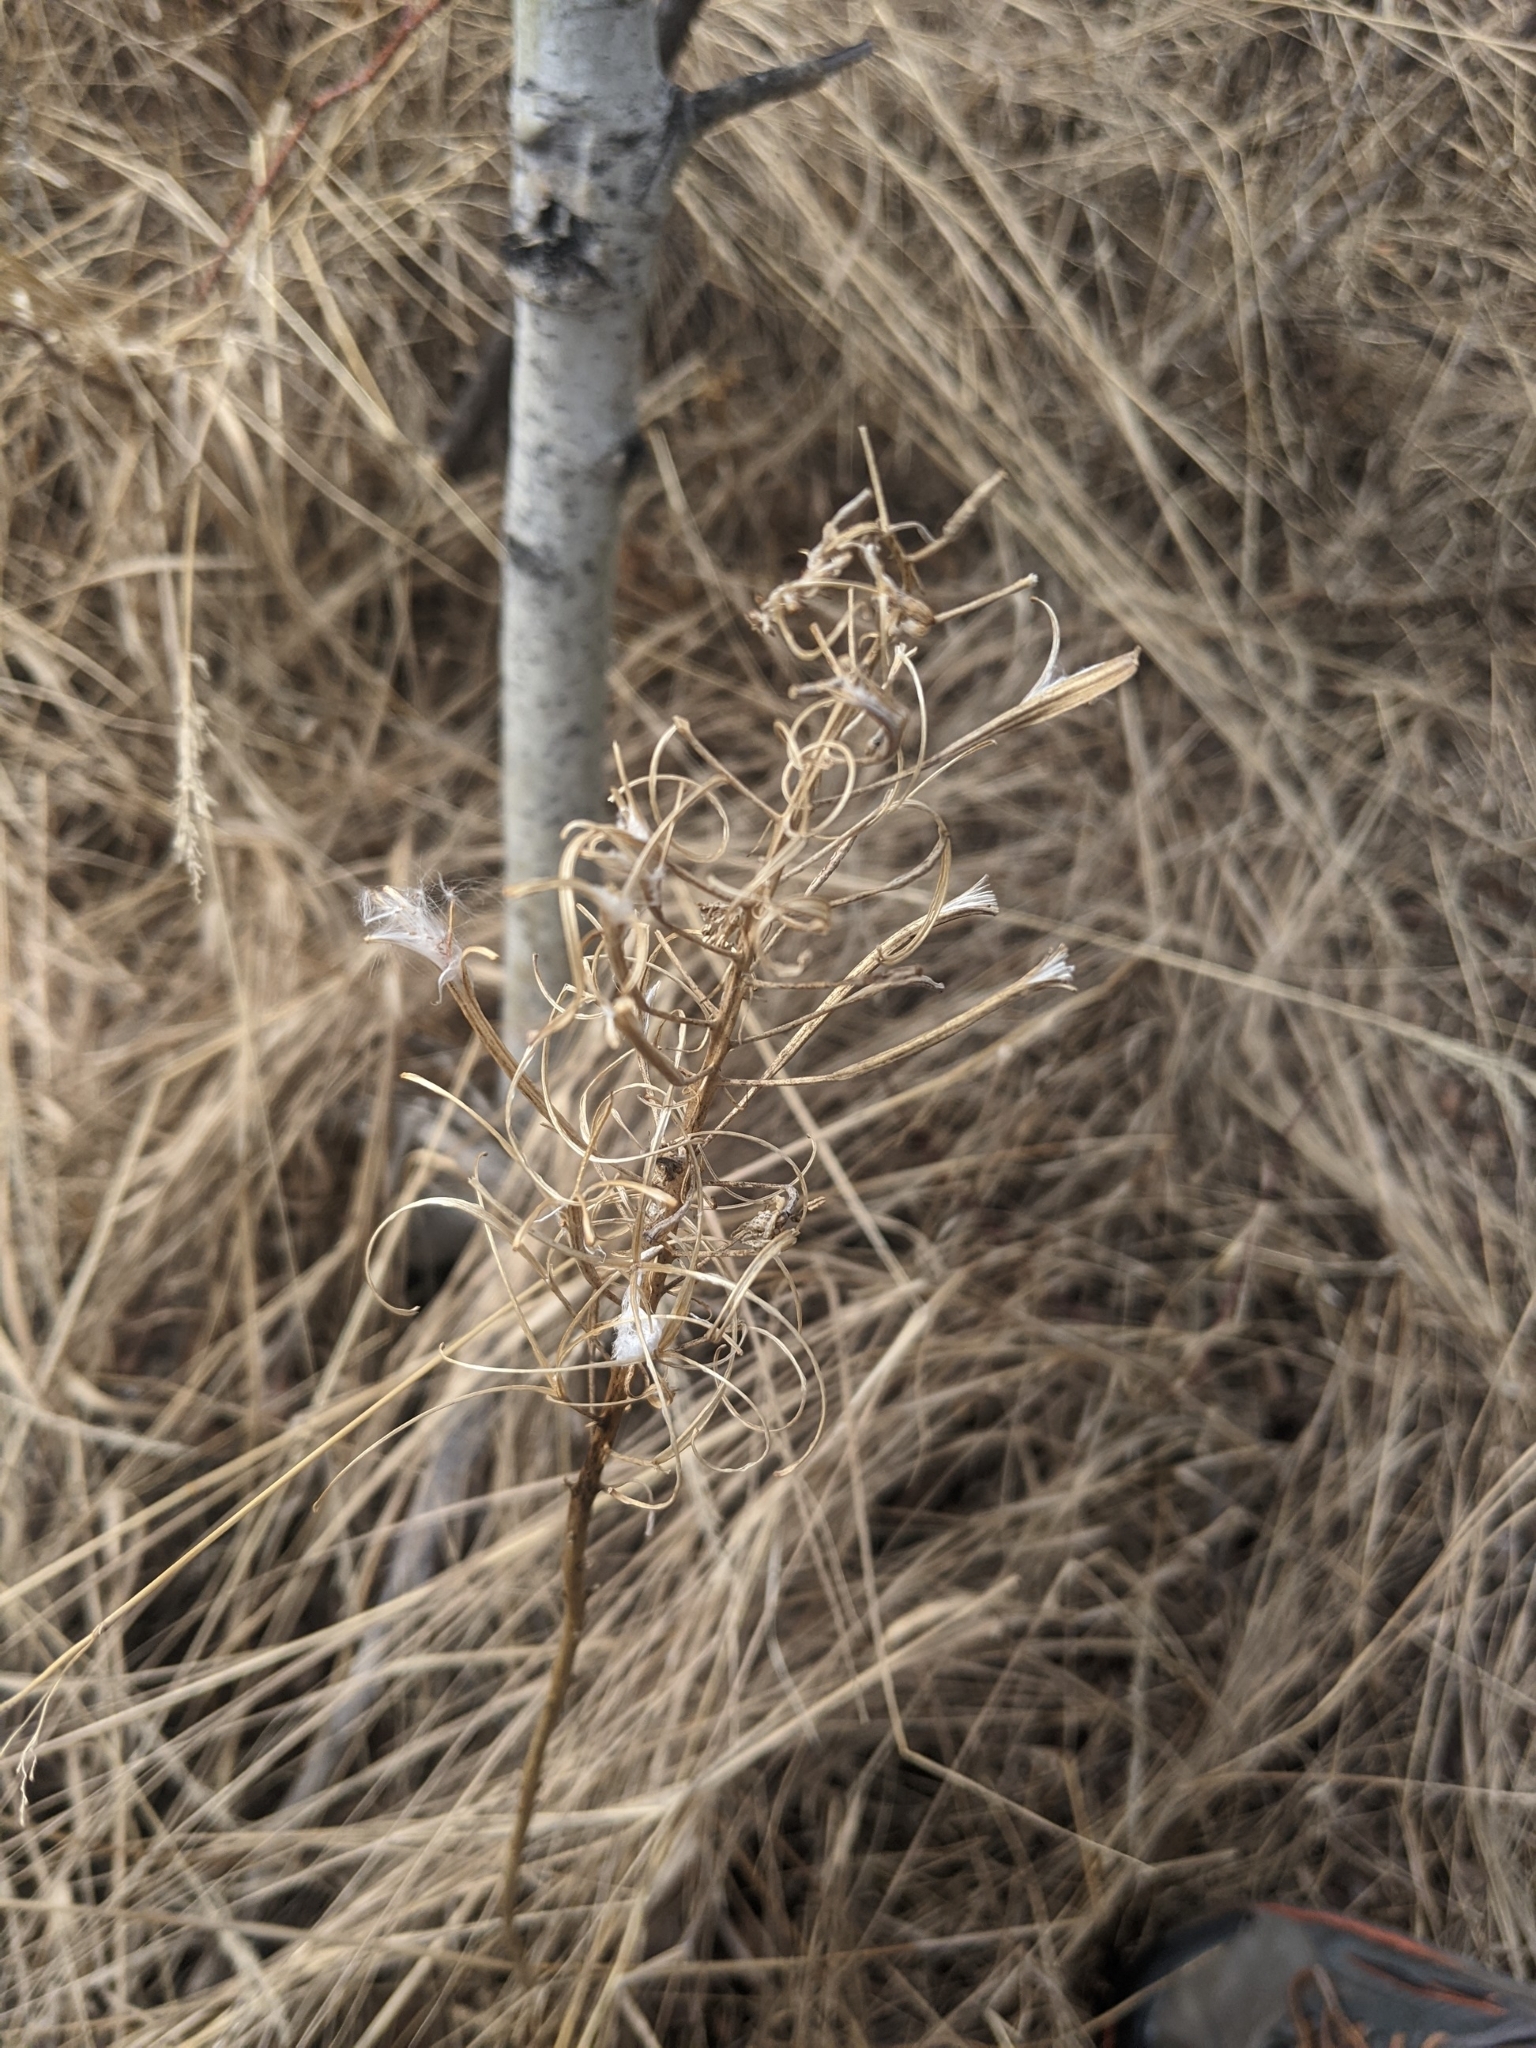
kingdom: Plantae
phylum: Tracheophyta
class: Magnoliopsida
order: Myrtales
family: Onagraceae
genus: Chamaenerion
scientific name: Chamaenerion angustifolium
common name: Fireweed
